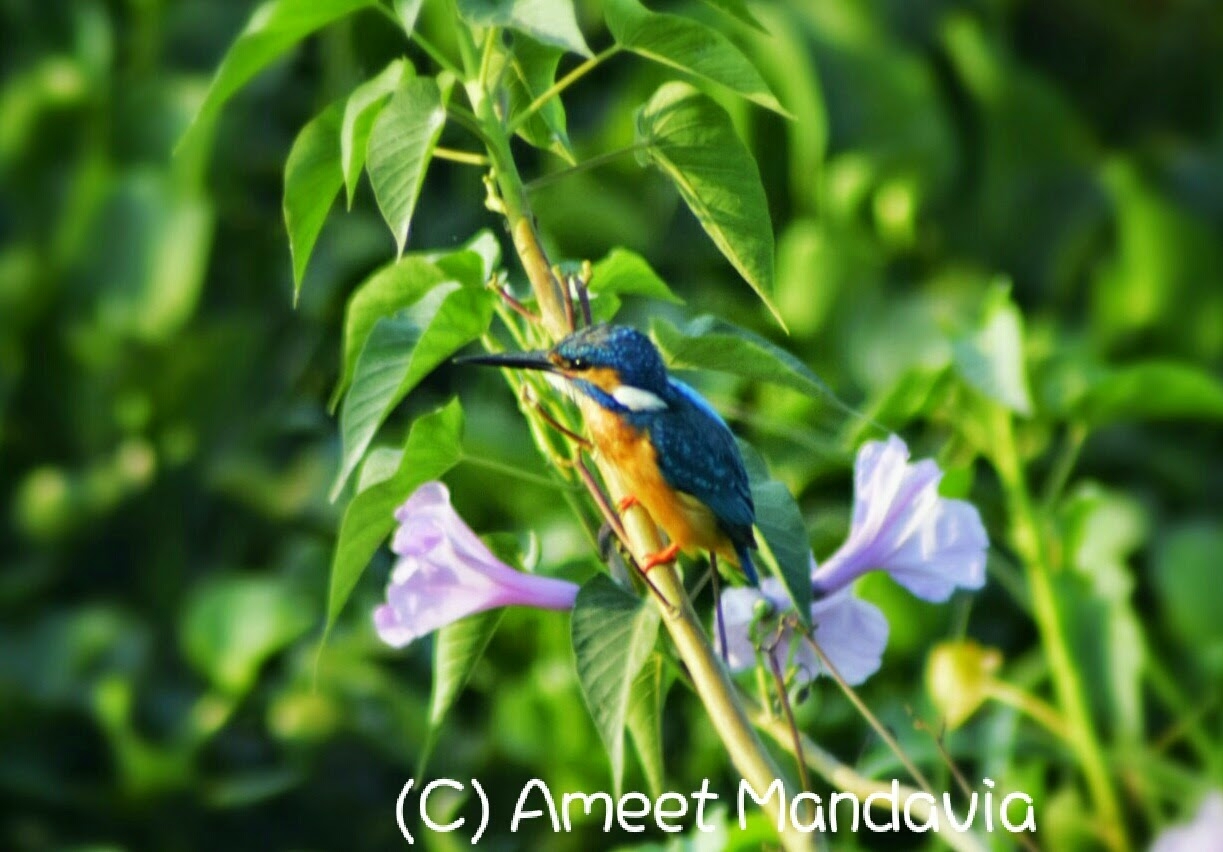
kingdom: Animalia
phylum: Chordata
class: Aves
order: Coraciiformes
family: Alcedinidae
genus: Alcedo
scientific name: Alcedo atthis
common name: Common kingfisher
